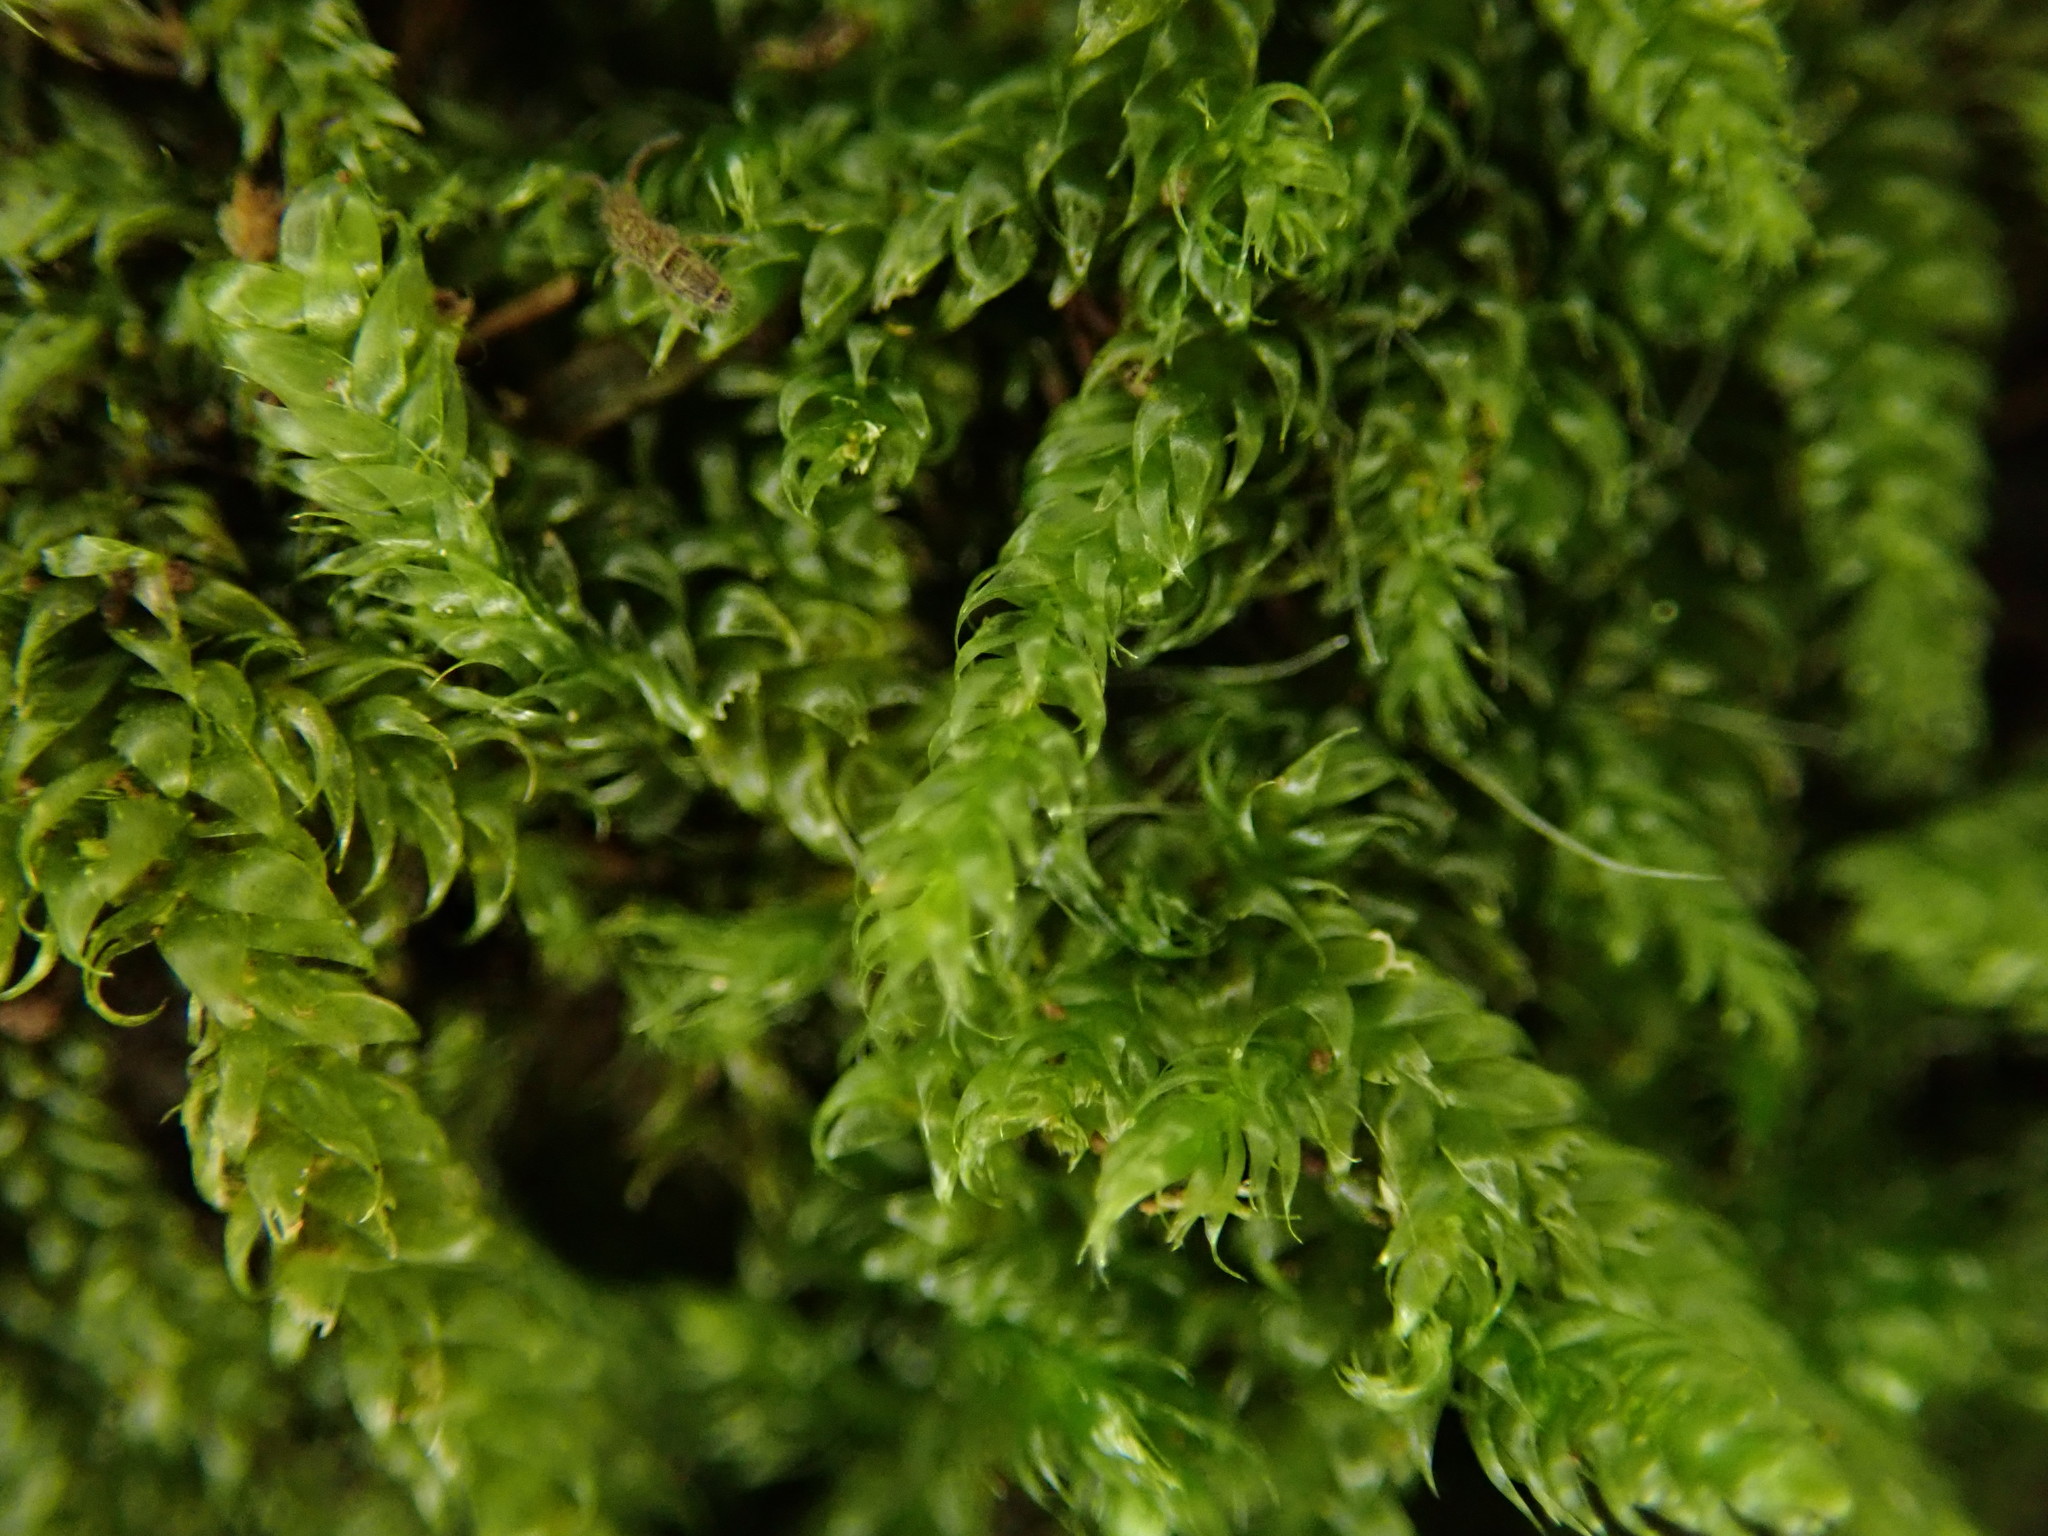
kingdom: Plantae
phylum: Bryophyta
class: Bryopsida
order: Hypnales
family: Hypnaceae
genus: Hypnum
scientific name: Hypnum cupressiforme
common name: Cypress-leaved plait-moss
